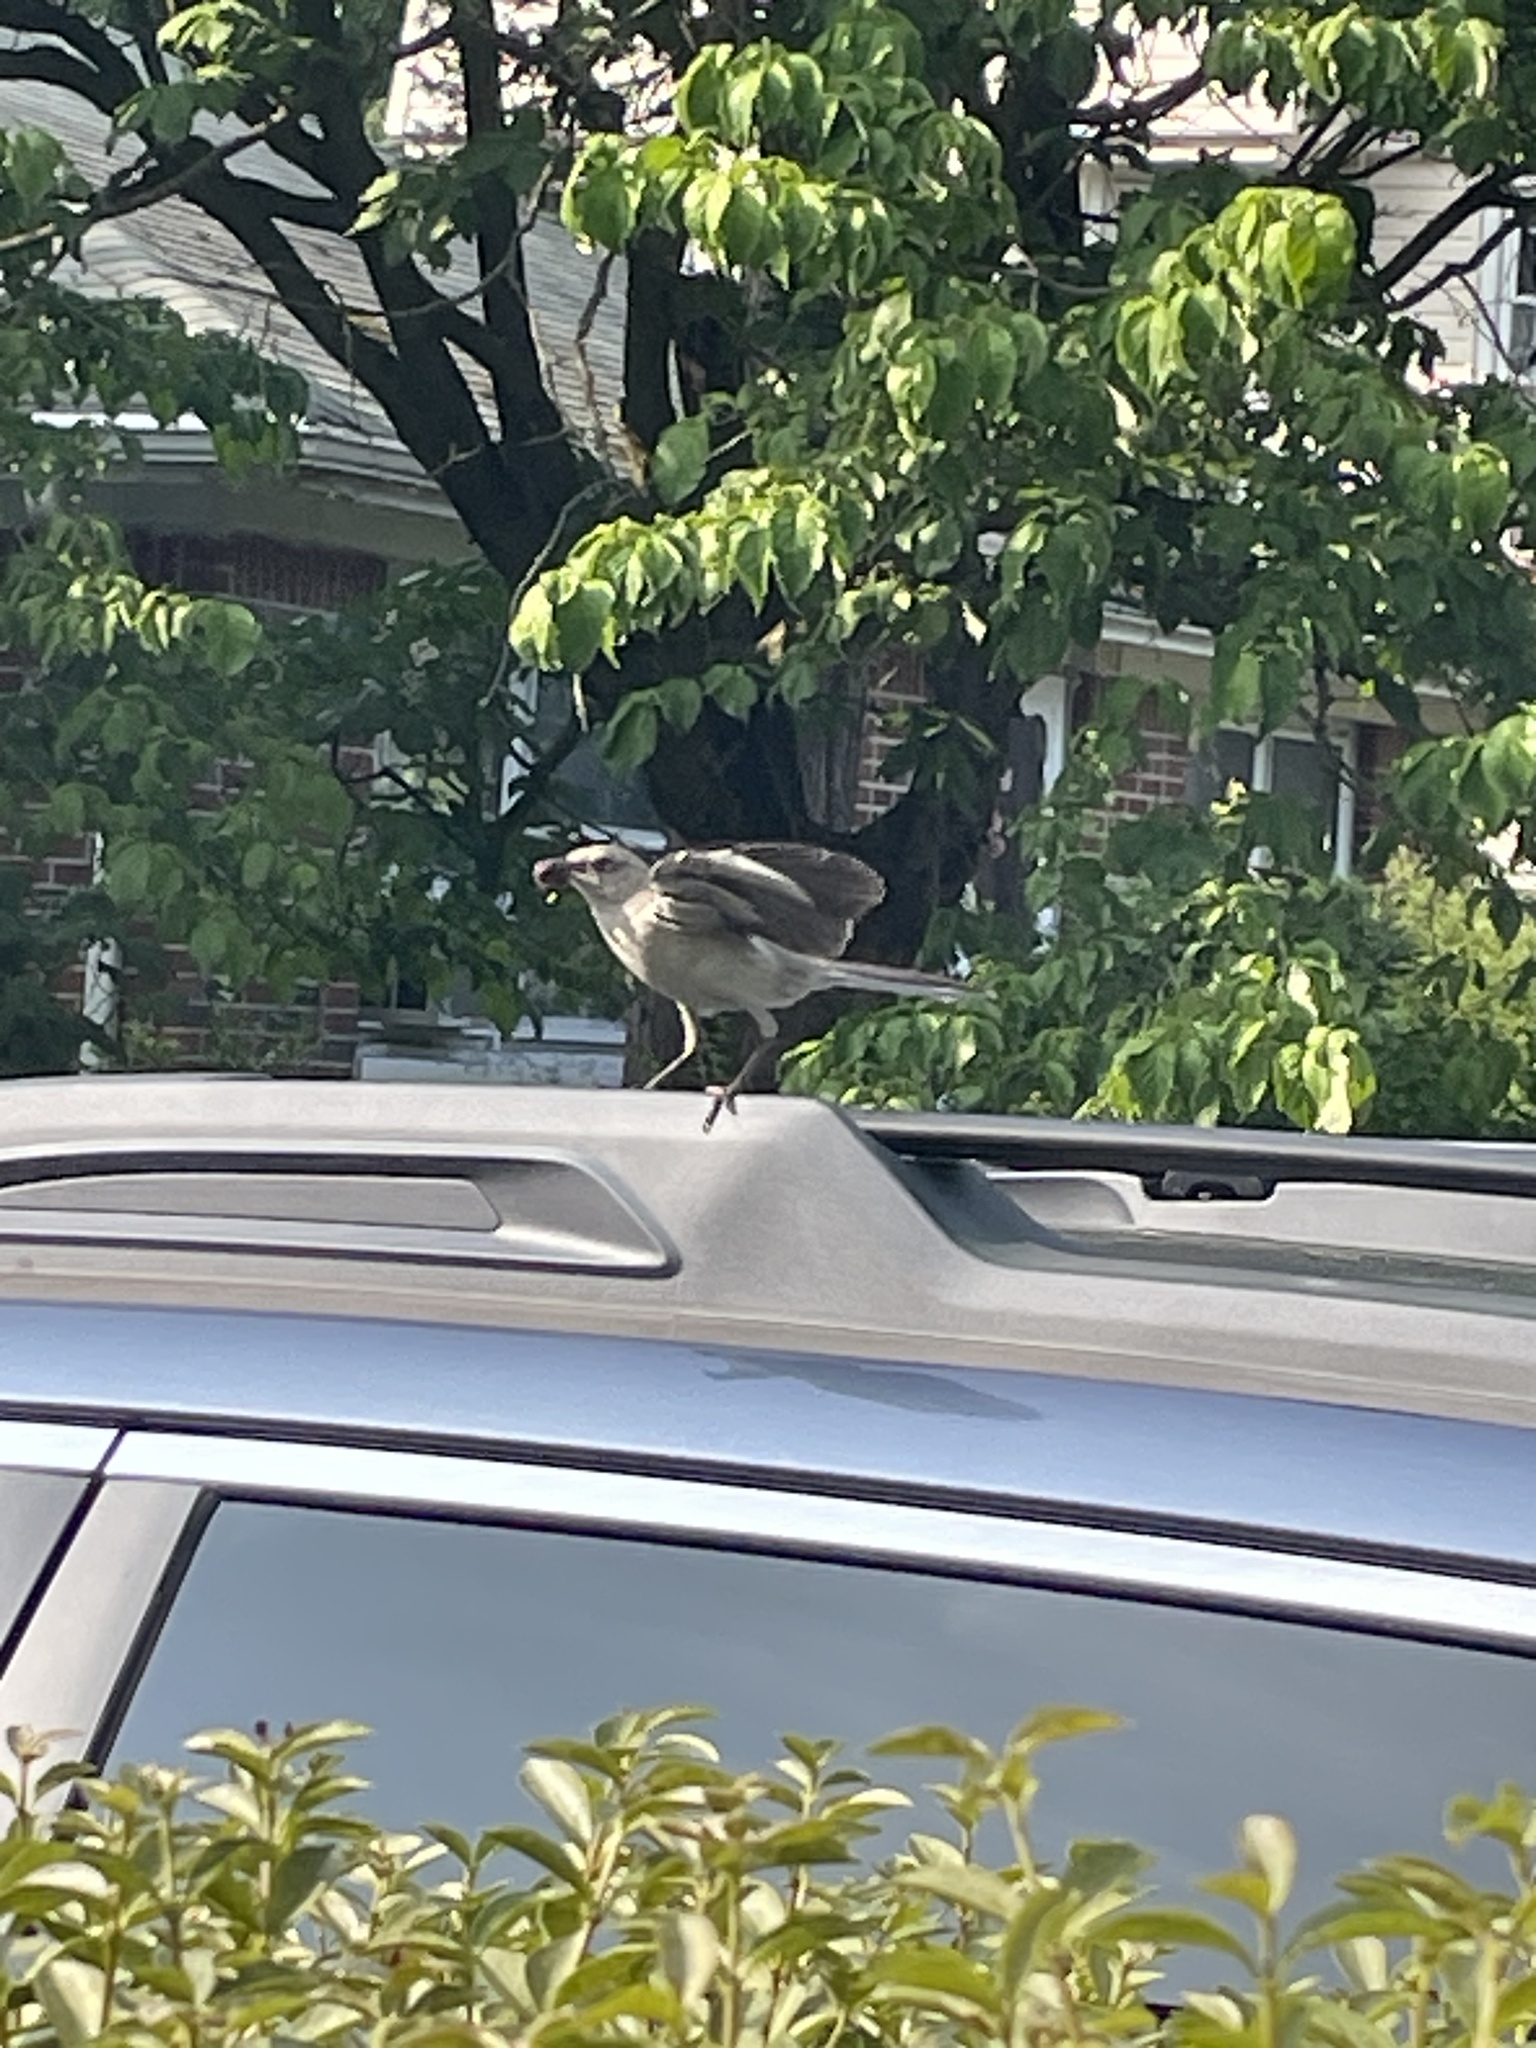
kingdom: Animalia
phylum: Chordata
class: Aves
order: Passeriformes
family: Mimidae
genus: Mimus
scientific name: Mimus polyglottos
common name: Northern mockingbird
